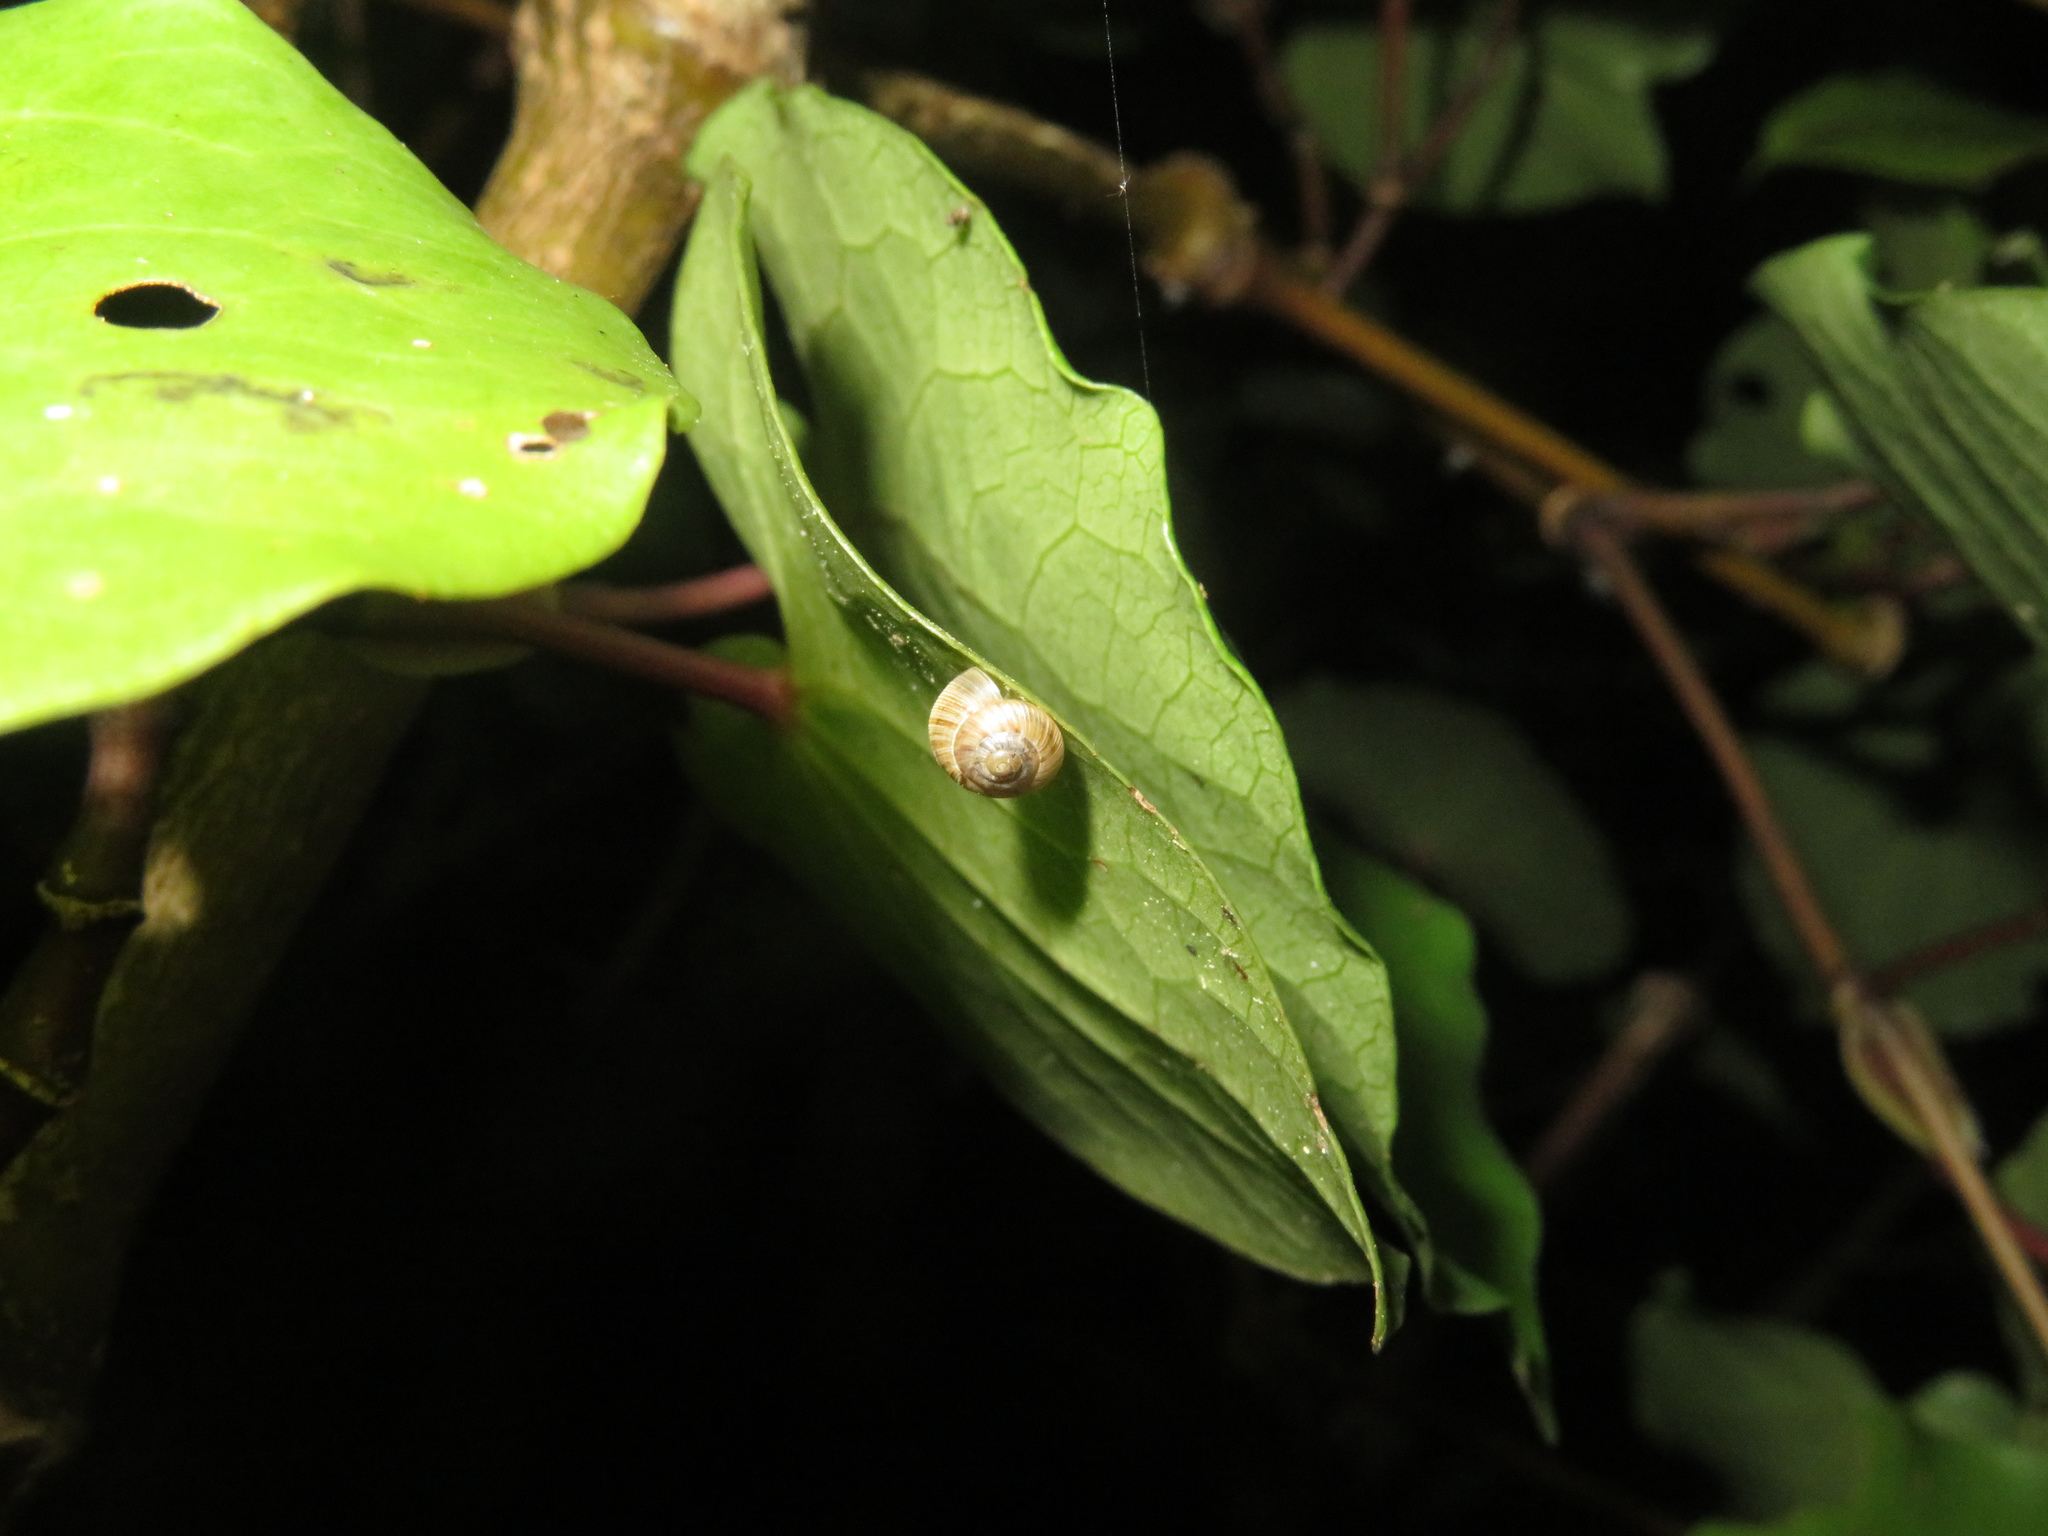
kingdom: Animalia
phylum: Mollusca
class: Gastropoda
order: Stylommatophora
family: Charopidae
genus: Serpho
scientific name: Serpho
